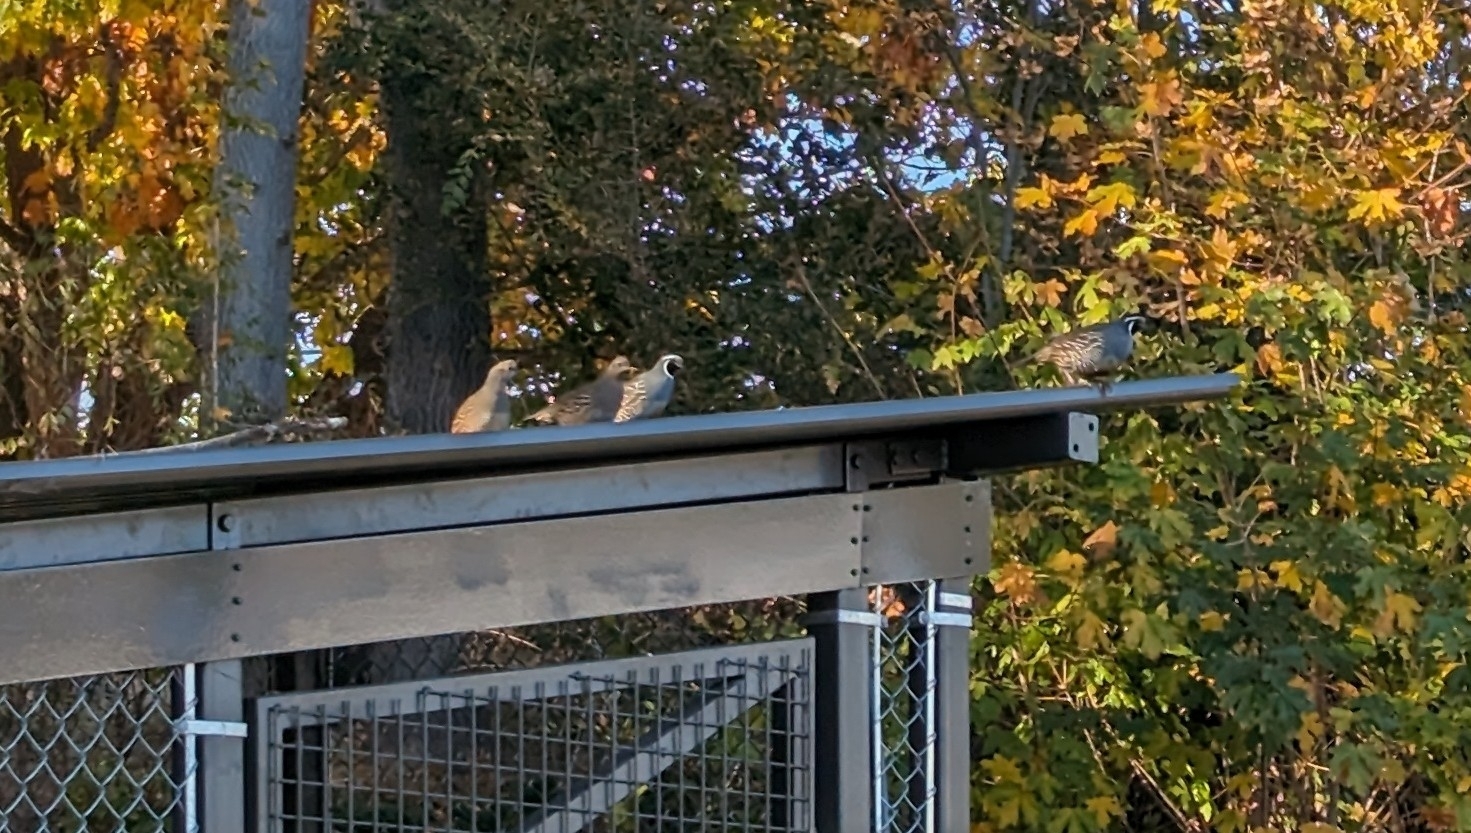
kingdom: Animalia
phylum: Chordata
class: Aves
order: Galliformes
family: Odontophoridae
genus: Callipepla
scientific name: Callipepla californica
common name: California quail
